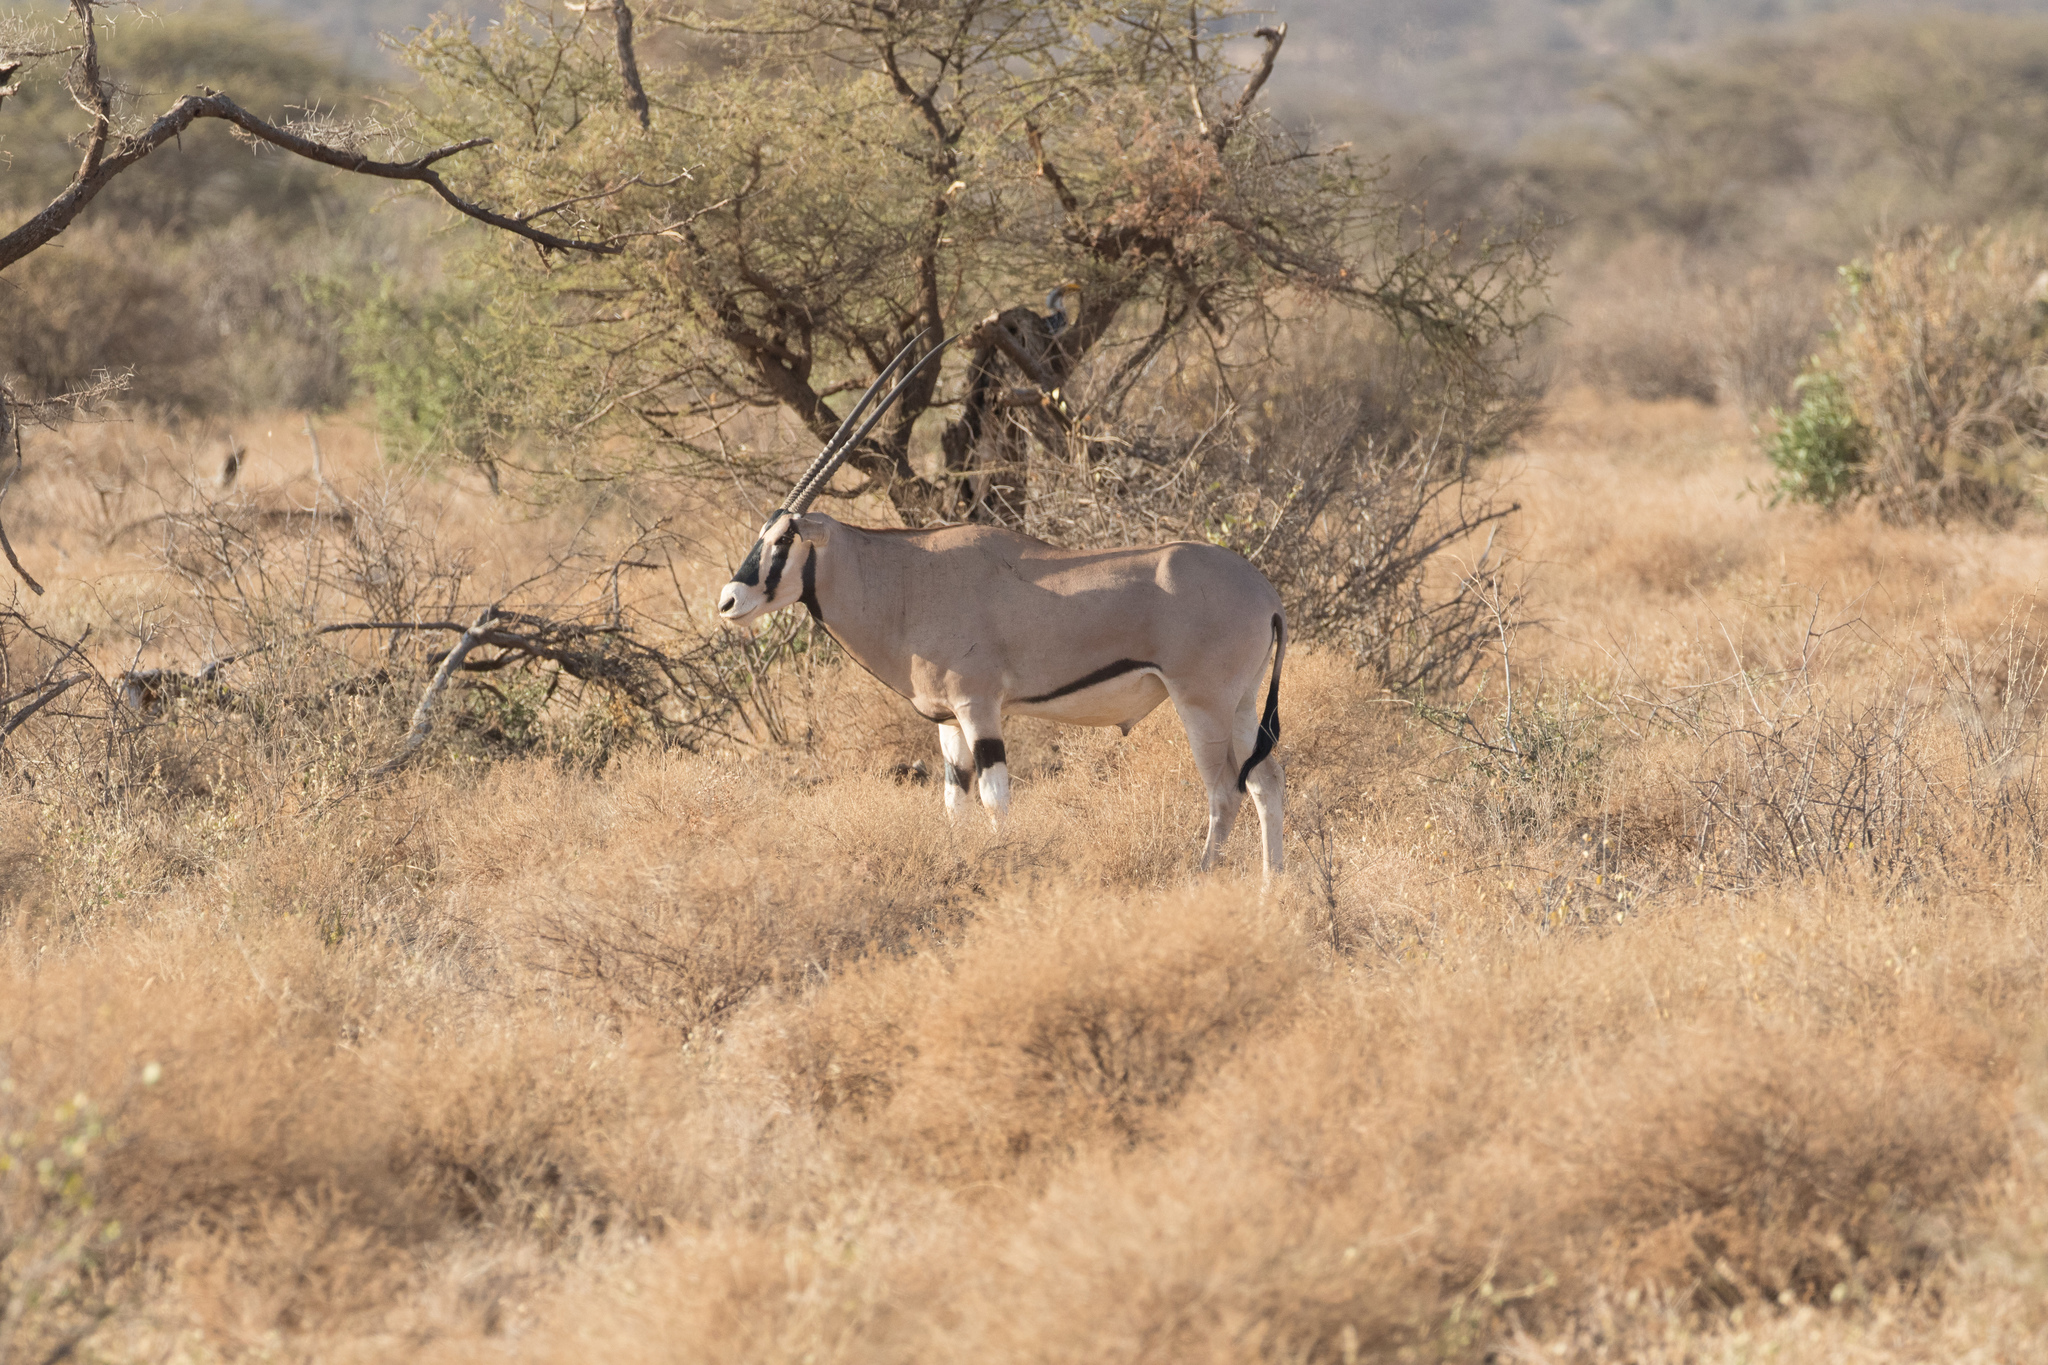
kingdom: Animalia
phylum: Chordata
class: Mammalia
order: Artiodactyla
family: Bovidae
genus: Oryx
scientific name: Oryx beisa
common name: Beisa
